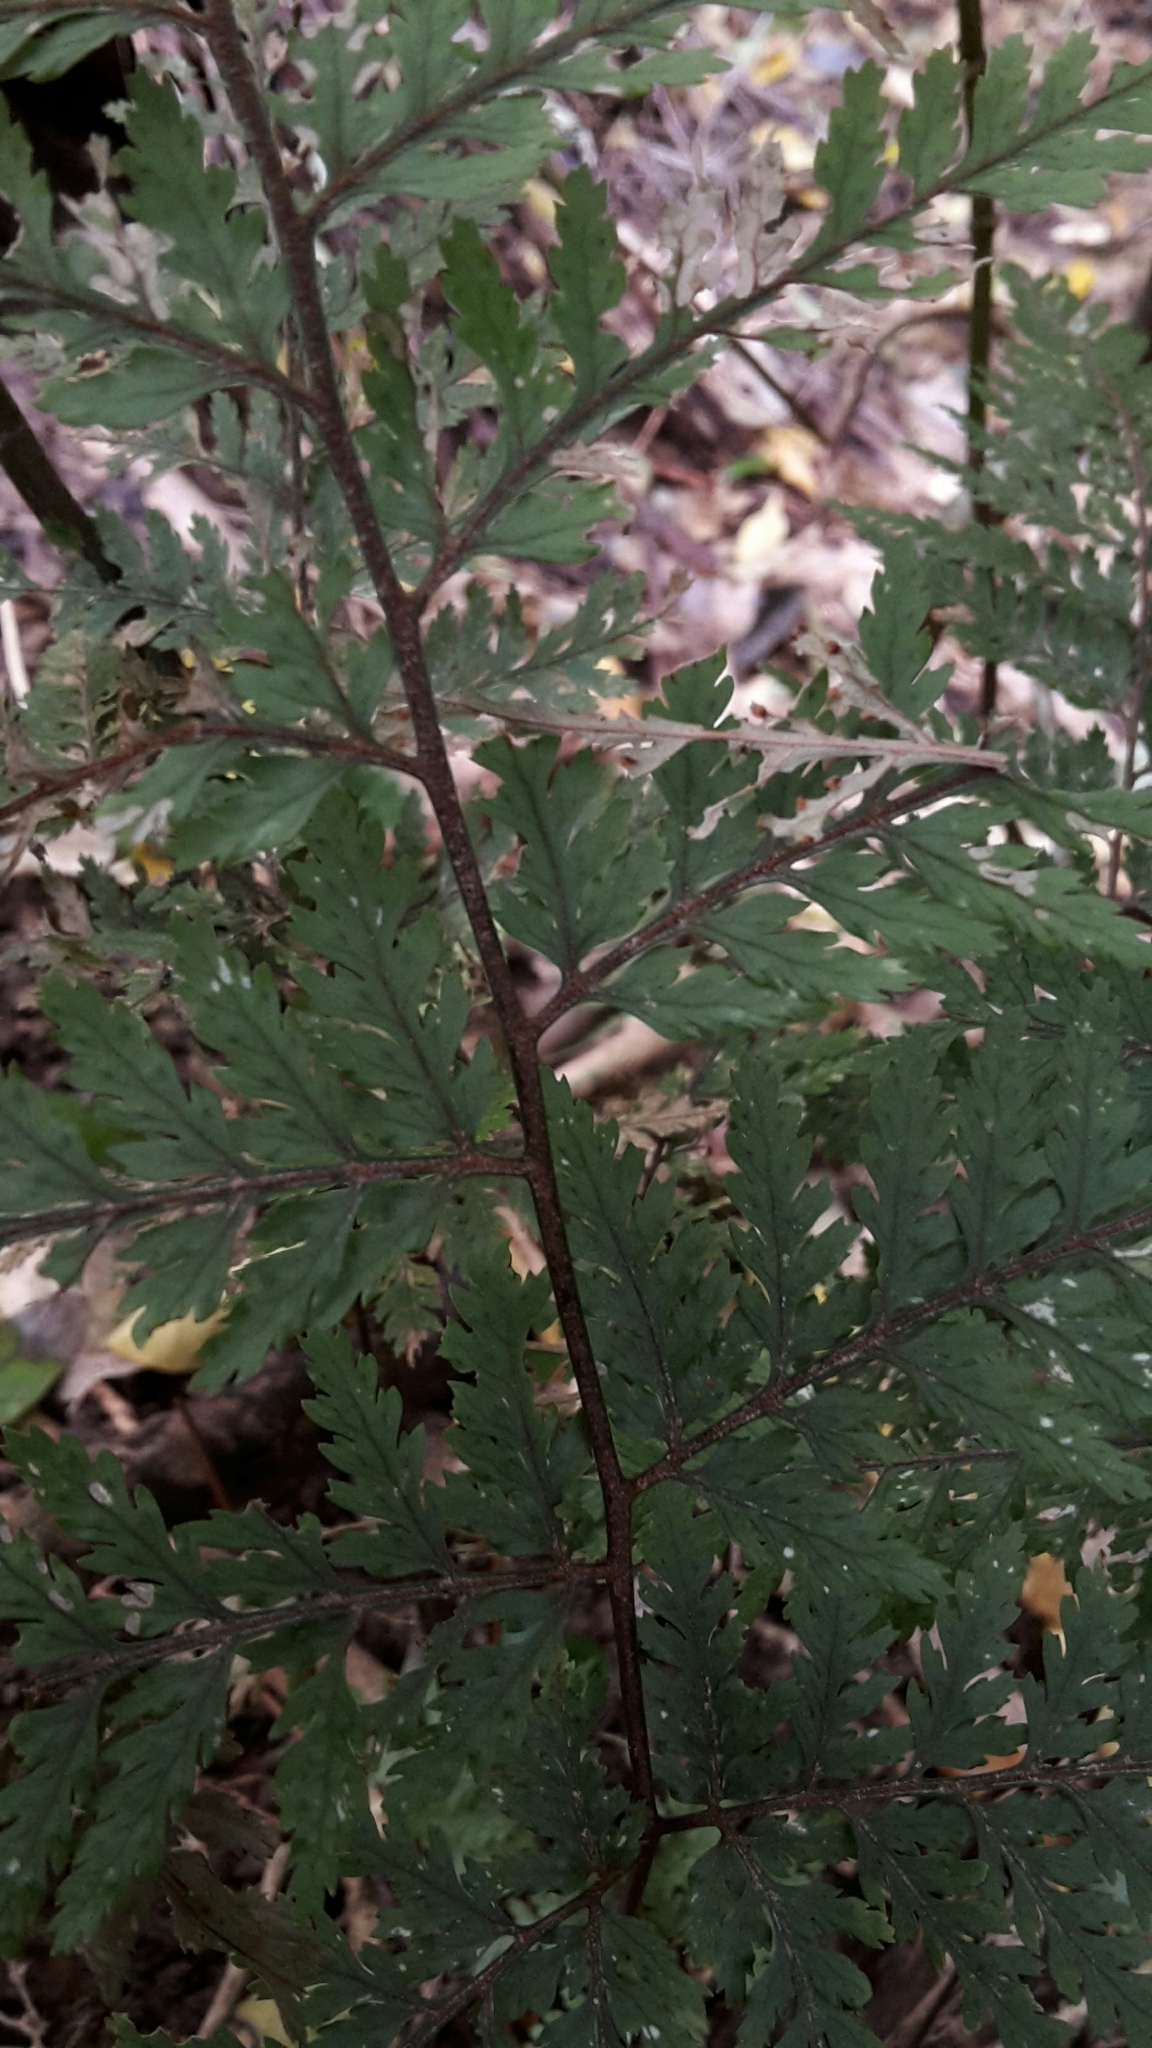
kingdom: Plantae
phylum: Tracheophyta
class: Polypodiopsida
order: Polypodiales
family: Dryopteridaceae
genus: Parapolystichum
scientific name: Parapolystichum glabellum
